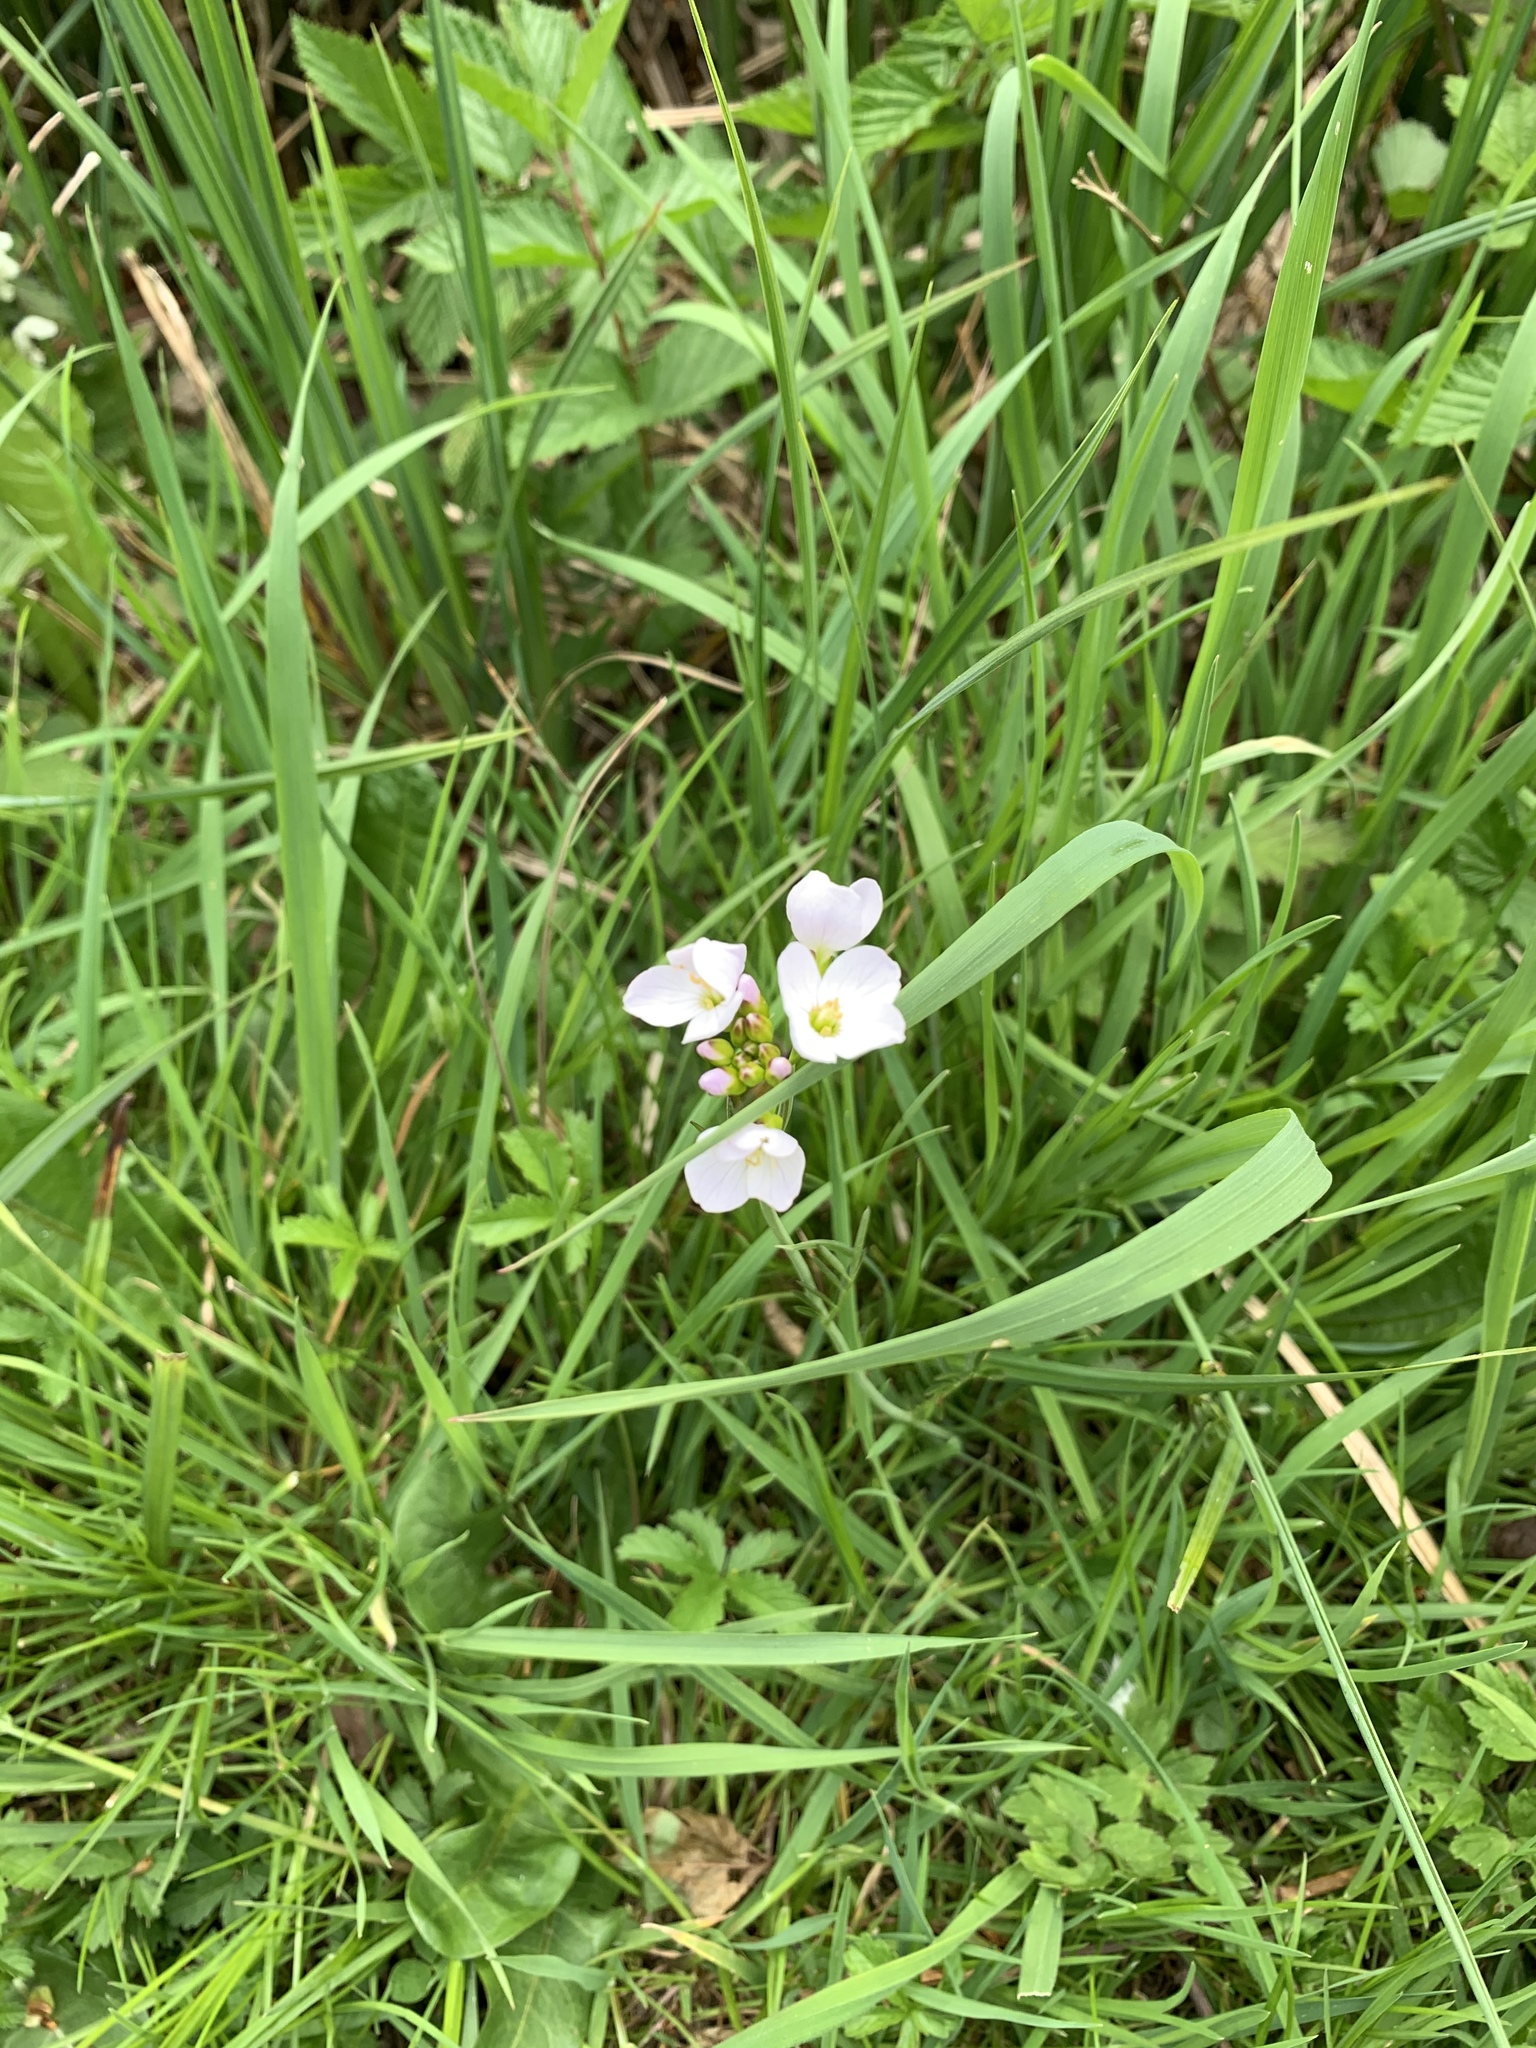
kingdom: Plantae
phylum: Tracheophyta
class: Magnoliopsida
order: Brassicales
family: Brassicaceae
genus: Cardamine
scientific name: Cardamine pratensis
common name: Cuckoo flower
